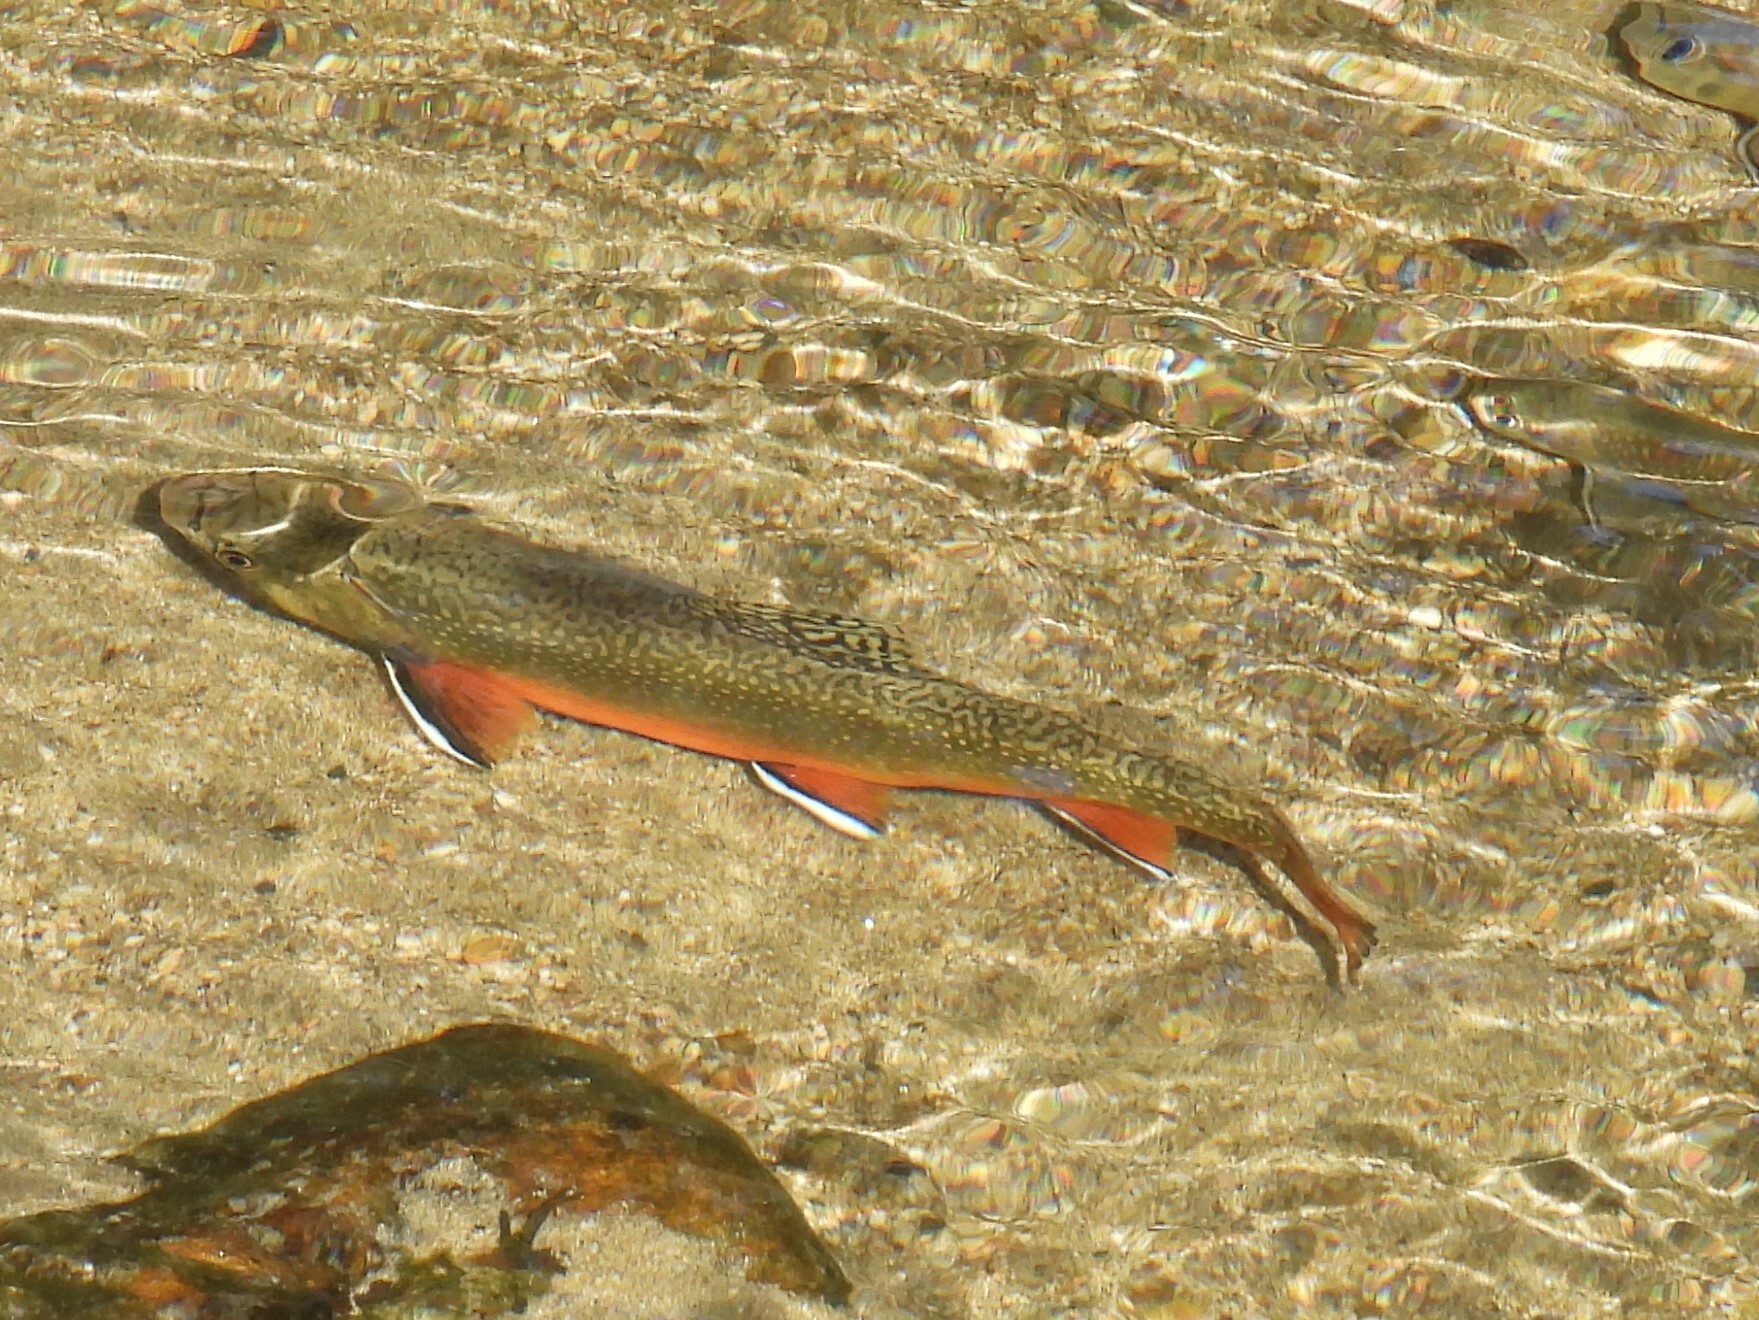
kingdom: Animalia
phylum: Chordata
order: Salmoniformes
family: Salmonidae
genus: Salvelinus
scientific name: Salvelinus fontinalis
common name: Brook trout
